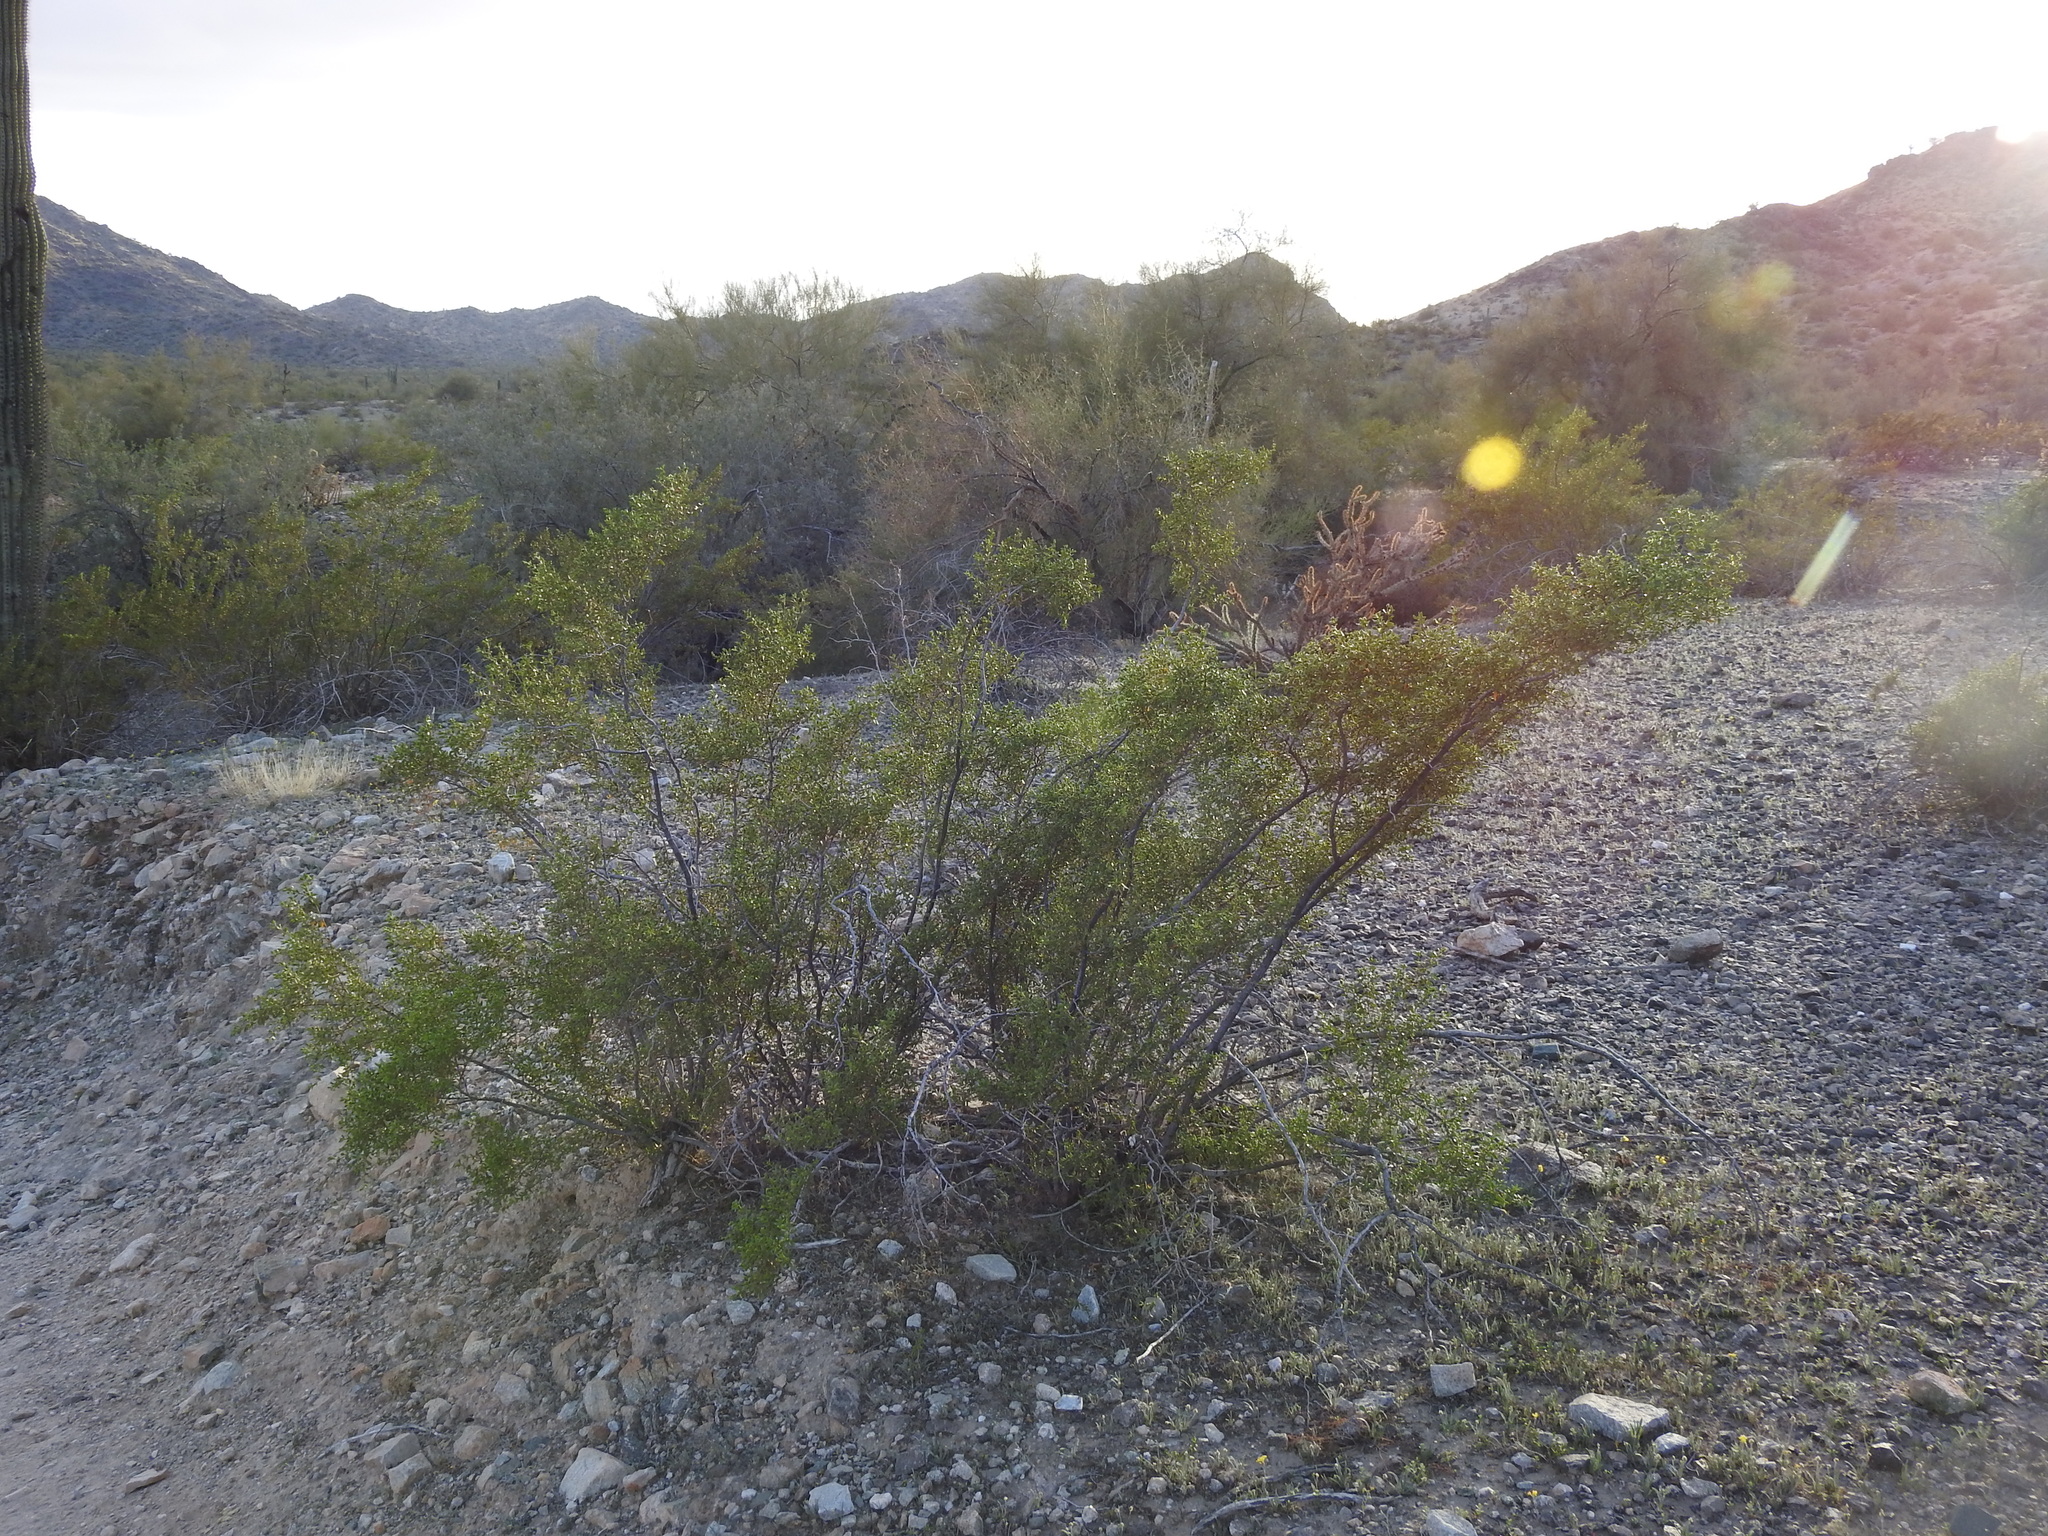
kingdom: Plantae
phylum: Tracheophyta
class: Magnoliopsida
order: Zygophyllales
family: Zygophyllaceae
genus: Larrea
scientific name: Larrea tridentata
